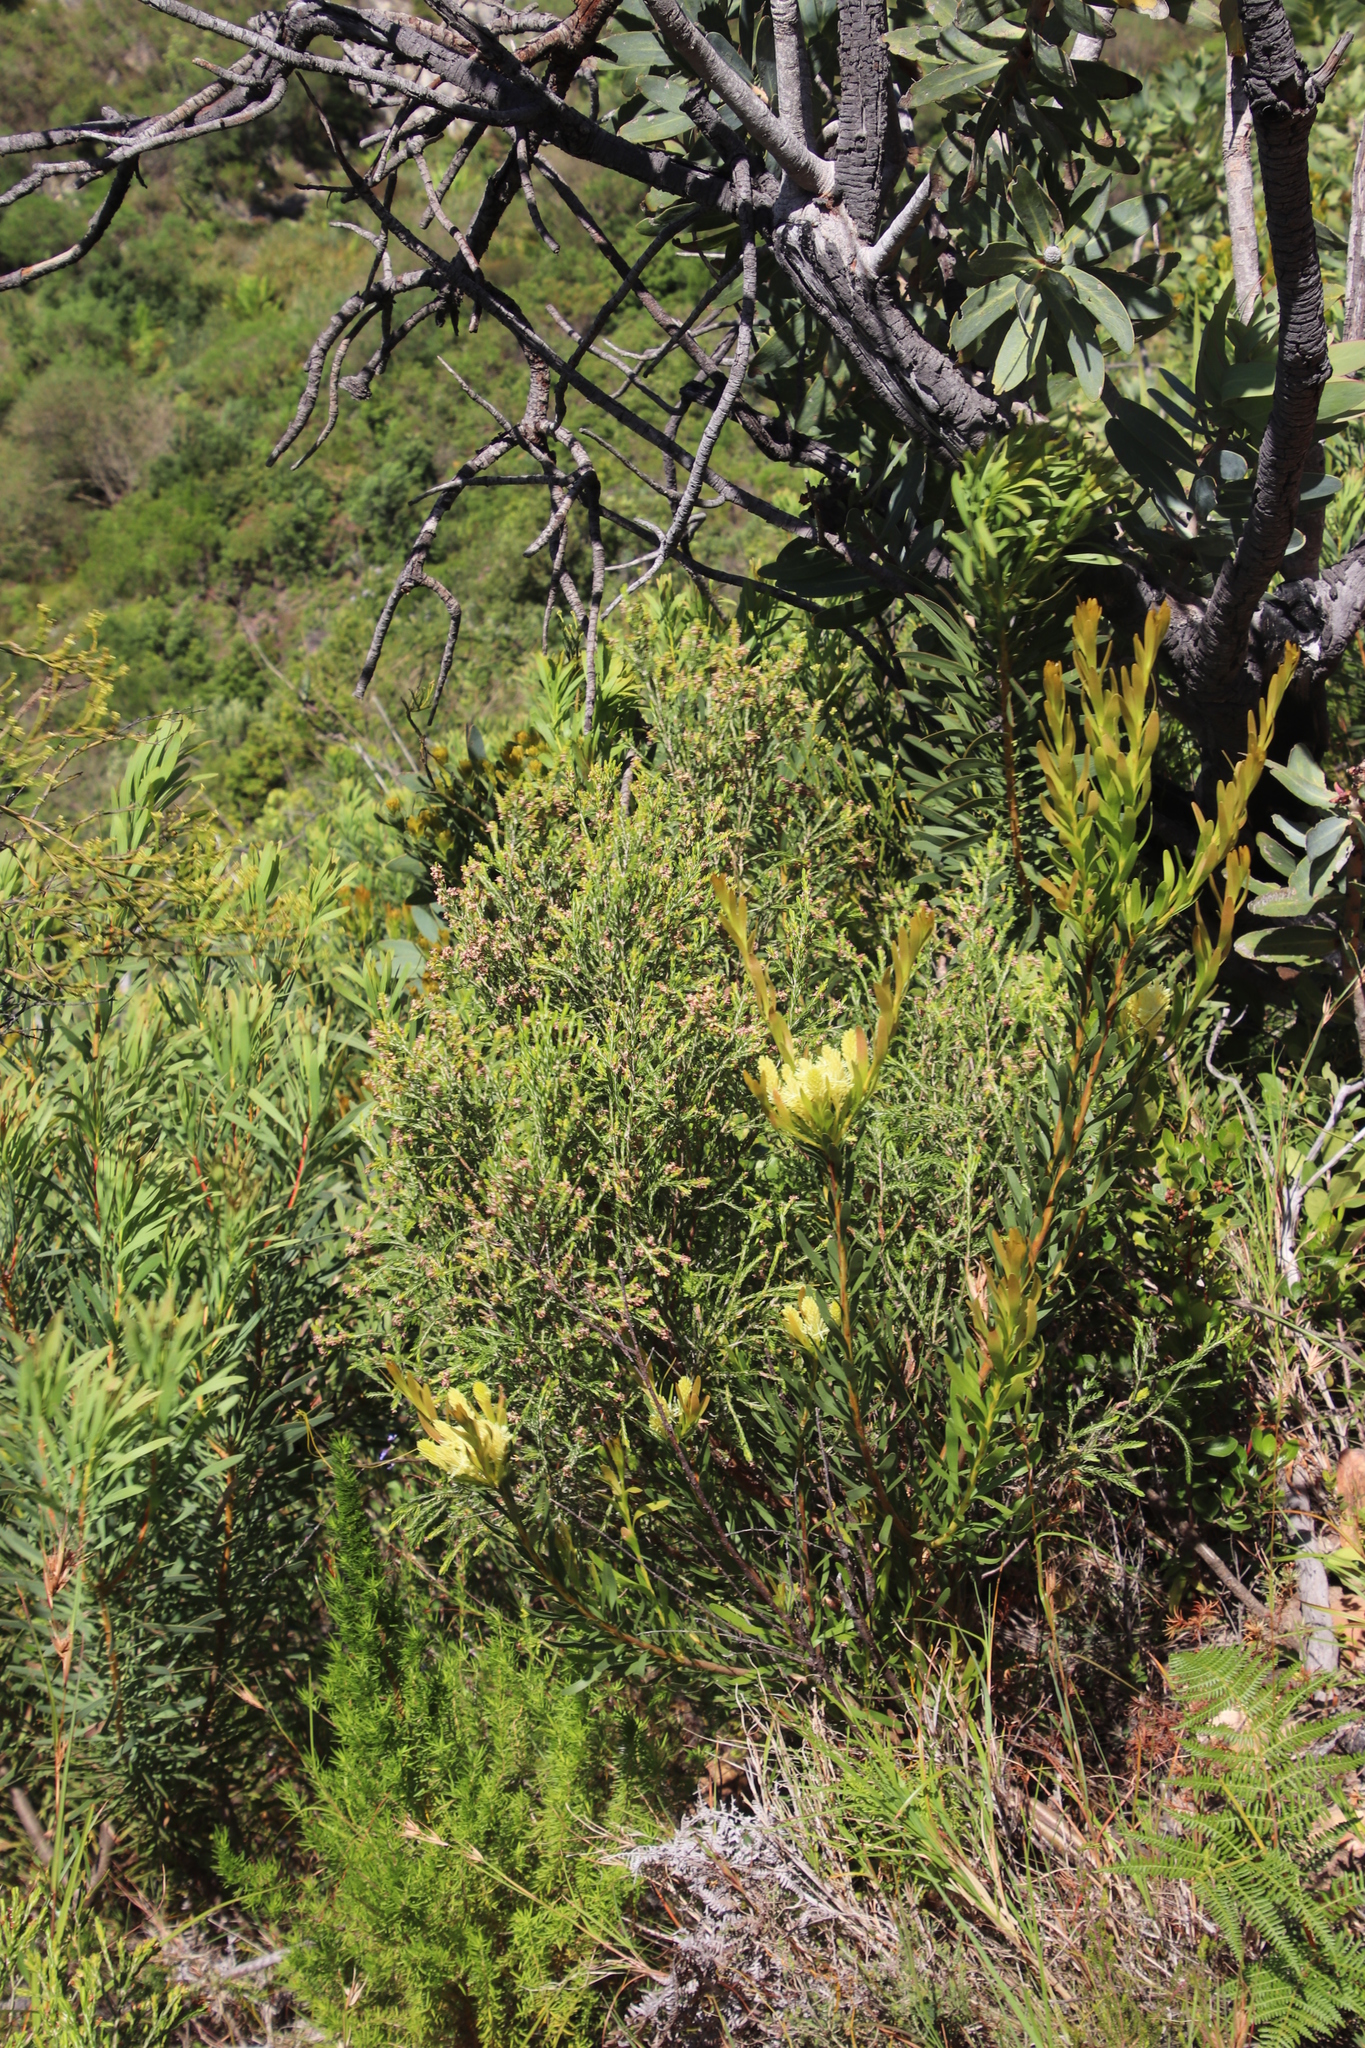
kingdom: Plantae
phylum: Tracheophyta
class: Magnoliopsida
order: Proteales
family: Proteaceae
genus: Aulax
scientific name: Aulax umbellata
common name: Broad-leaf featherbush
